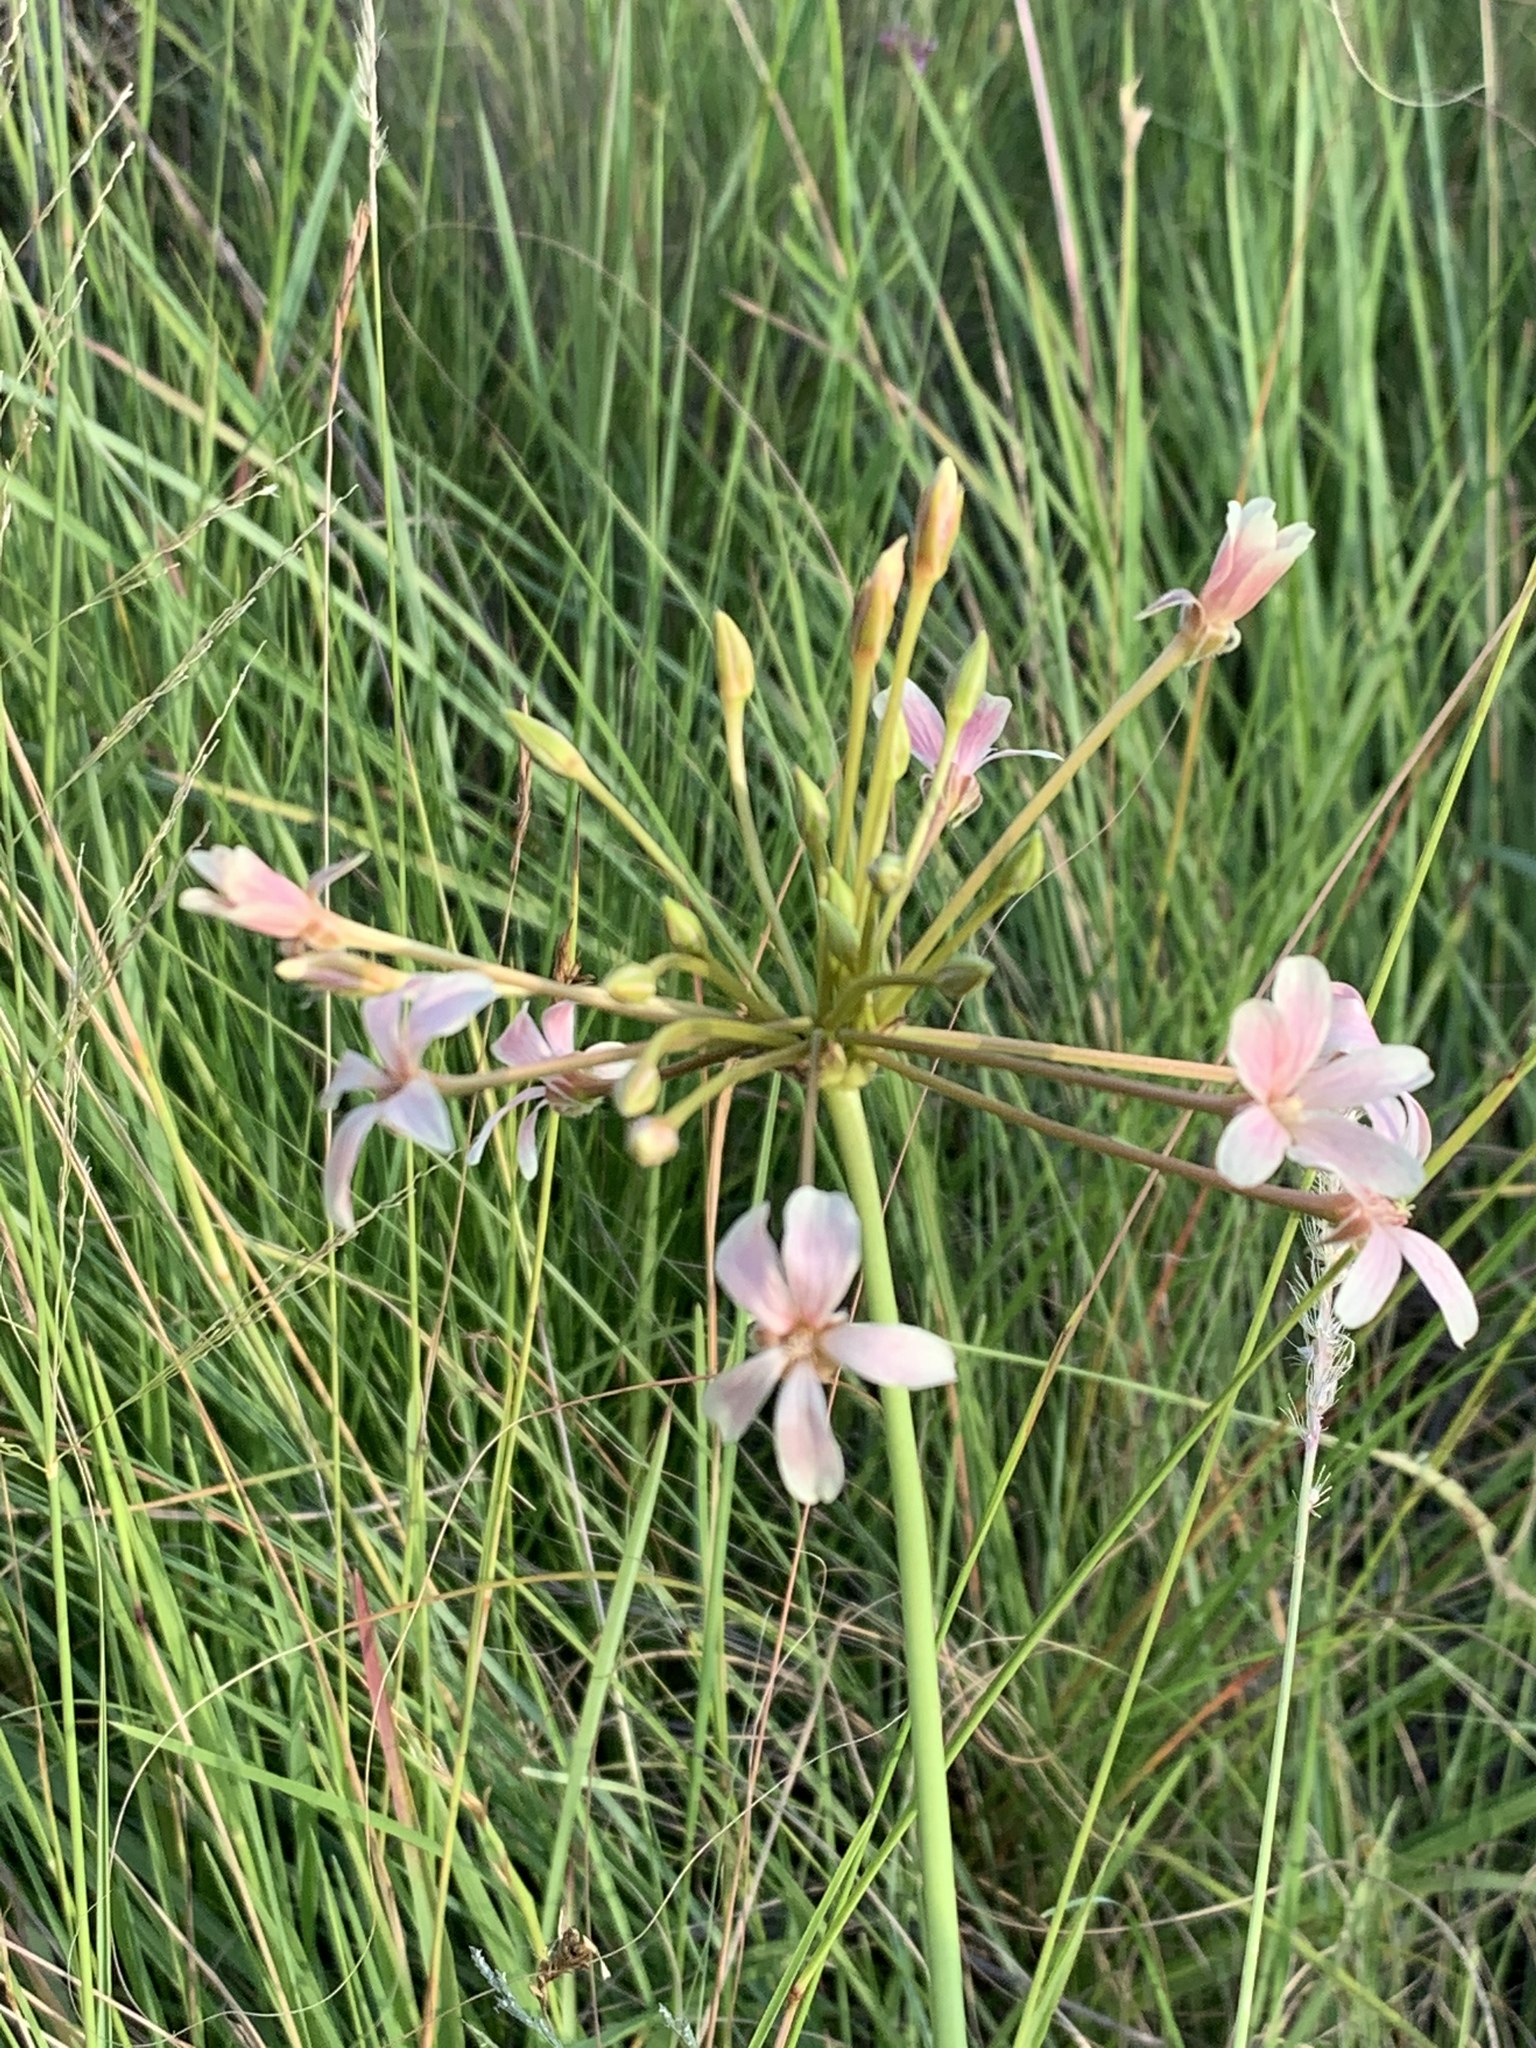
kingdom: Plantae
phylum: Tracheophyta
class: Magnoliopsida
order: Geraniales
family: Geraniaceae
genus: Pelargonium
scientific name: Pelargonium luridum
